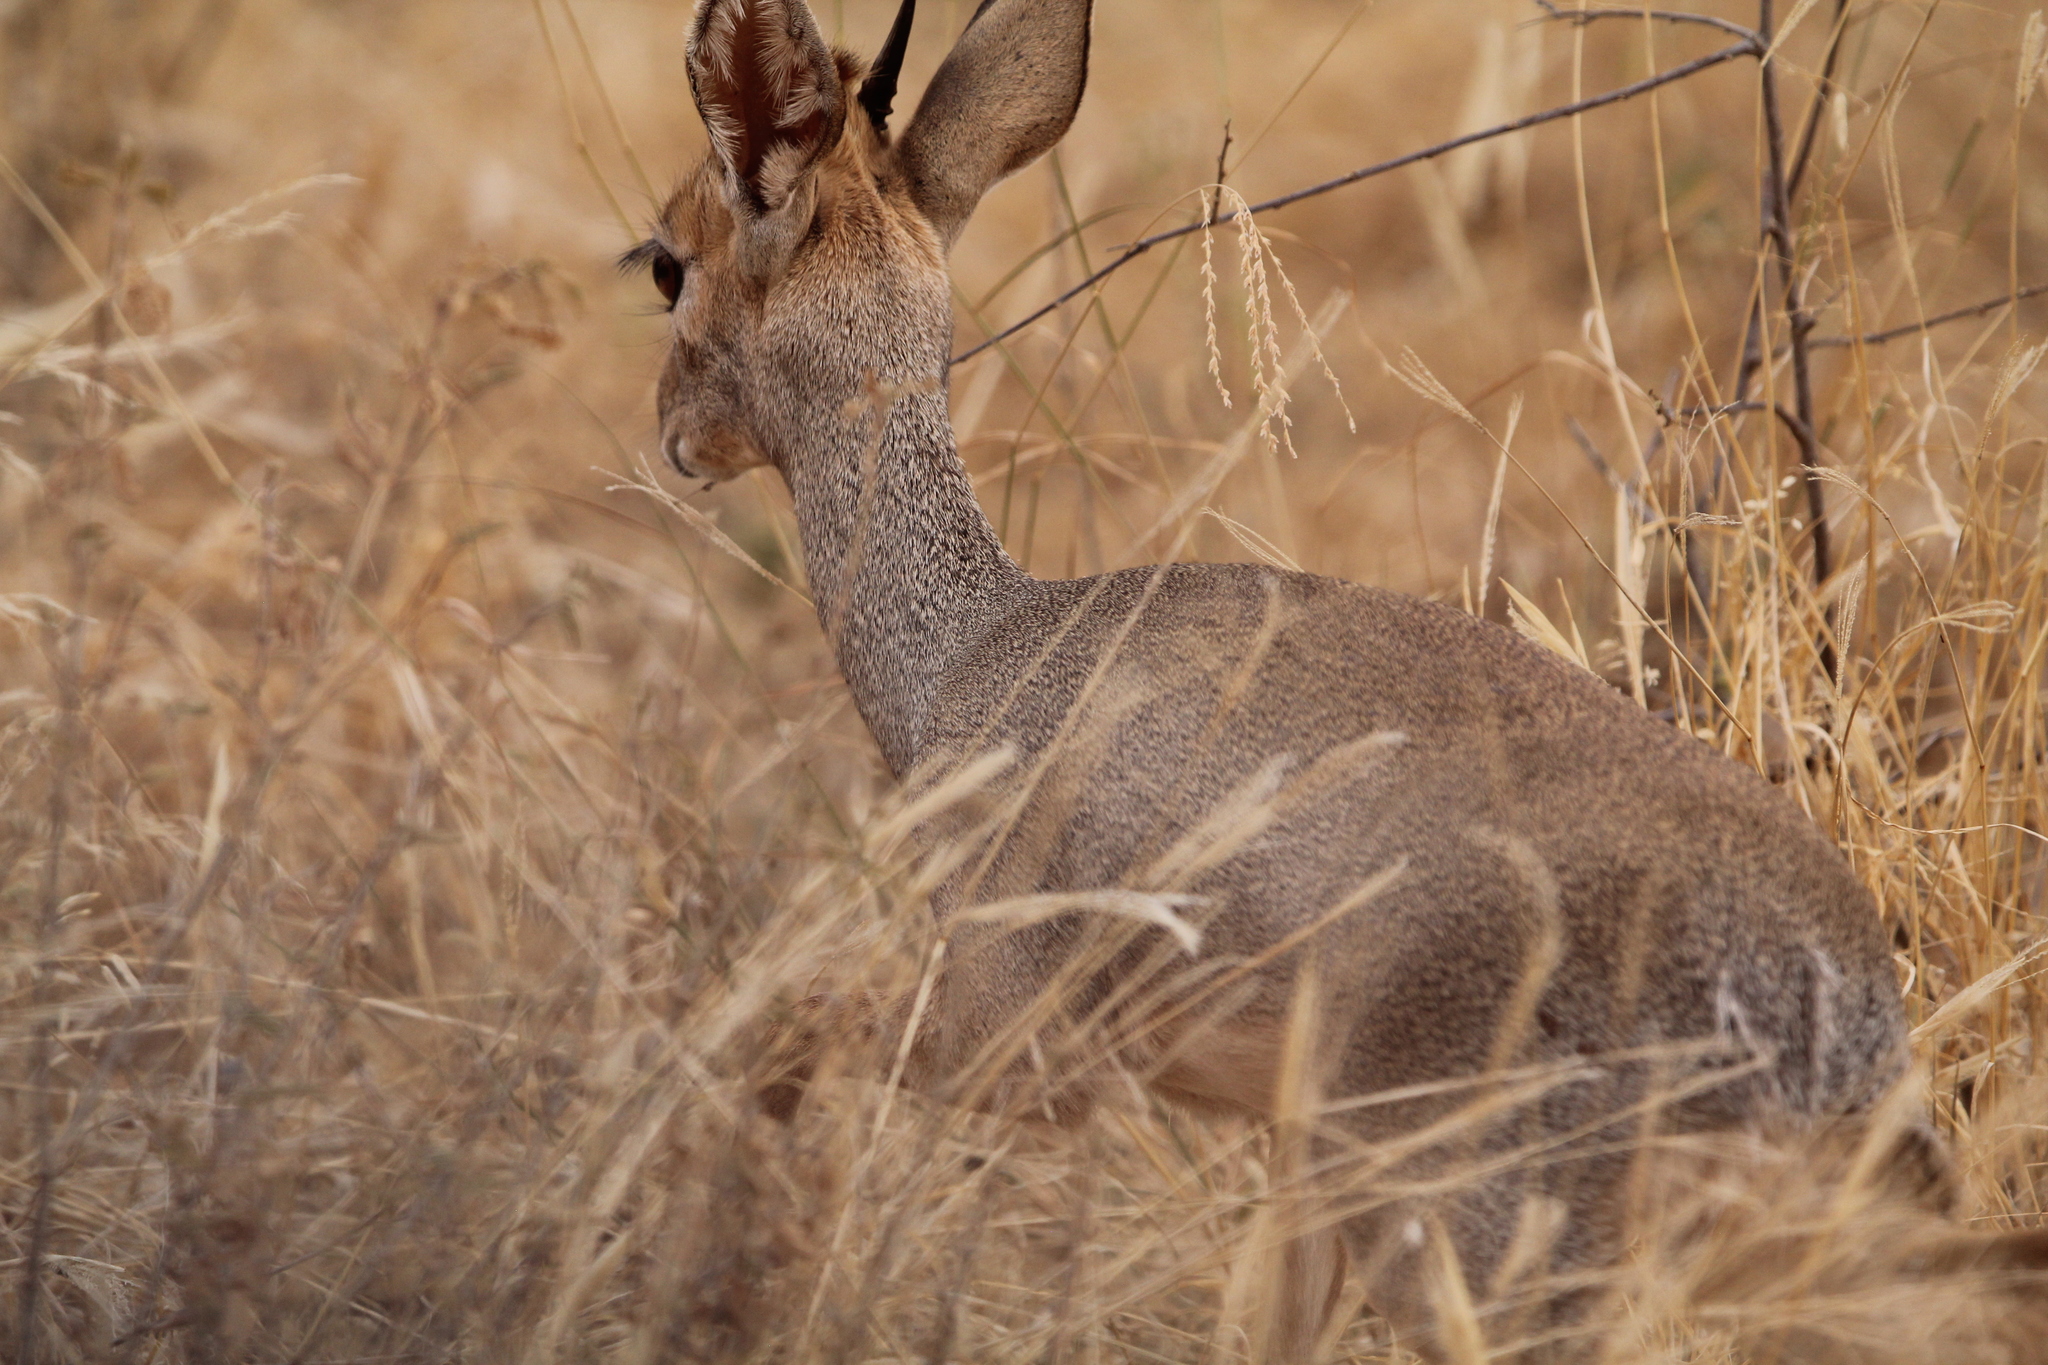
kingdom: Animalia
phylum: Chordata
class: Mammalia
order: Artiodactyla
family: Bovidae
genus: Madoqua
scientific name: Madoqua kirkii
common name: Kirk's dik-dik
